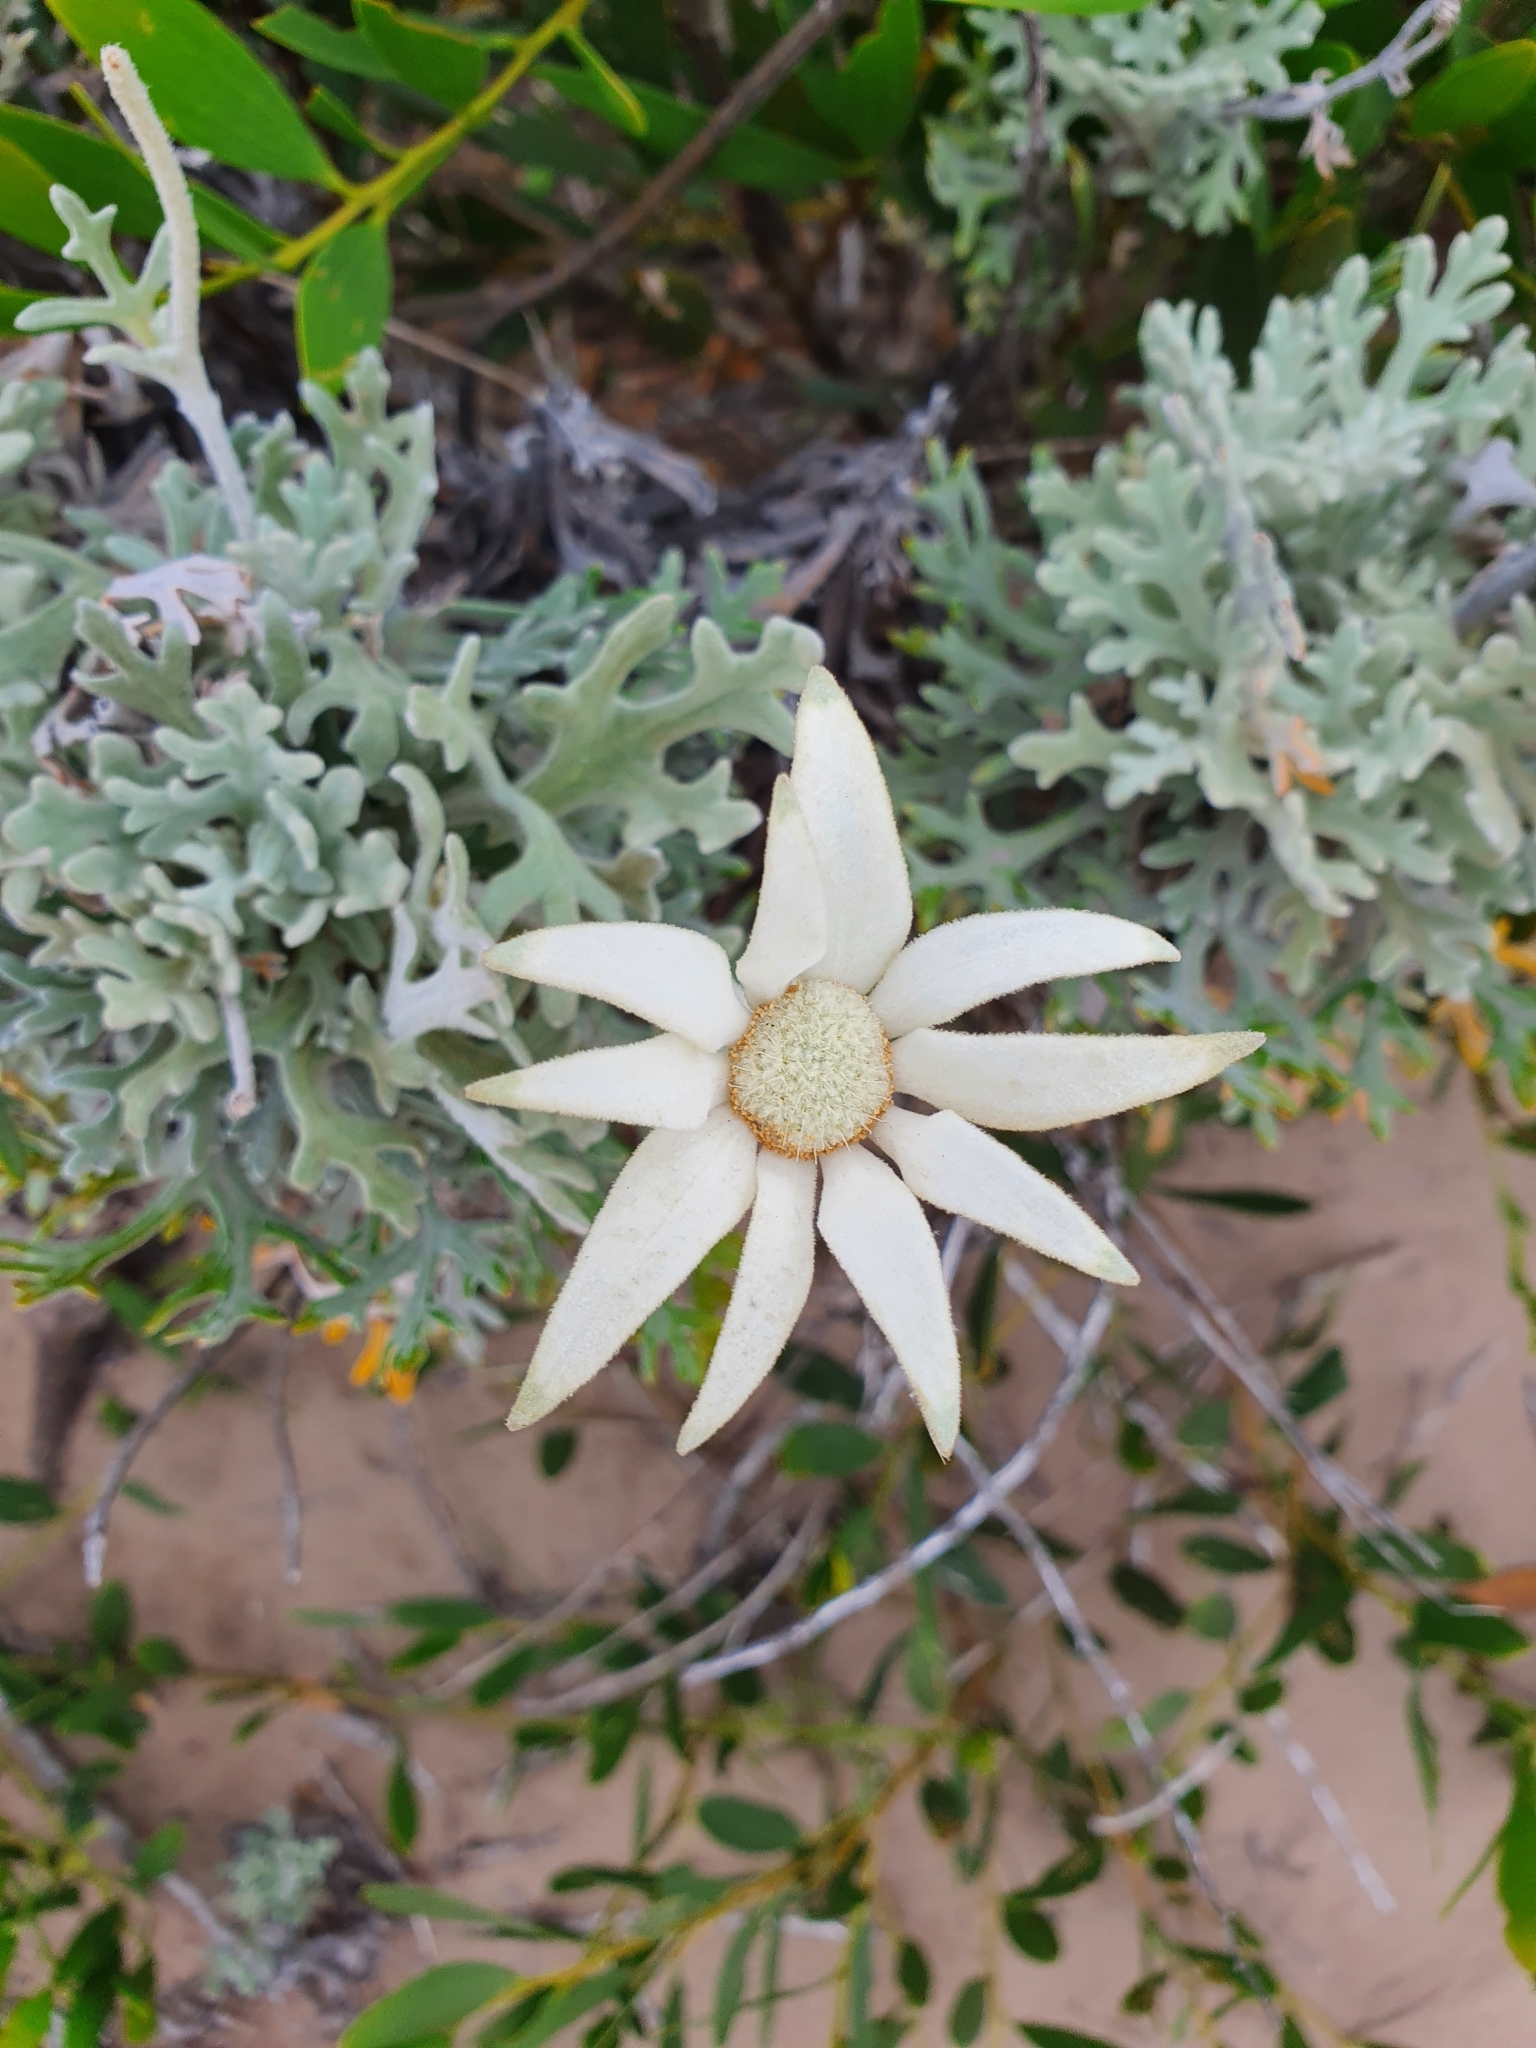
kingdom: Plantae
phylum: Tracheophyta
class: Magnoliopsida
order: Apiales
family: Apiaceae
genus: Actinotus
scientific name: Actinotus helianthi
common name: Flannel-flower
